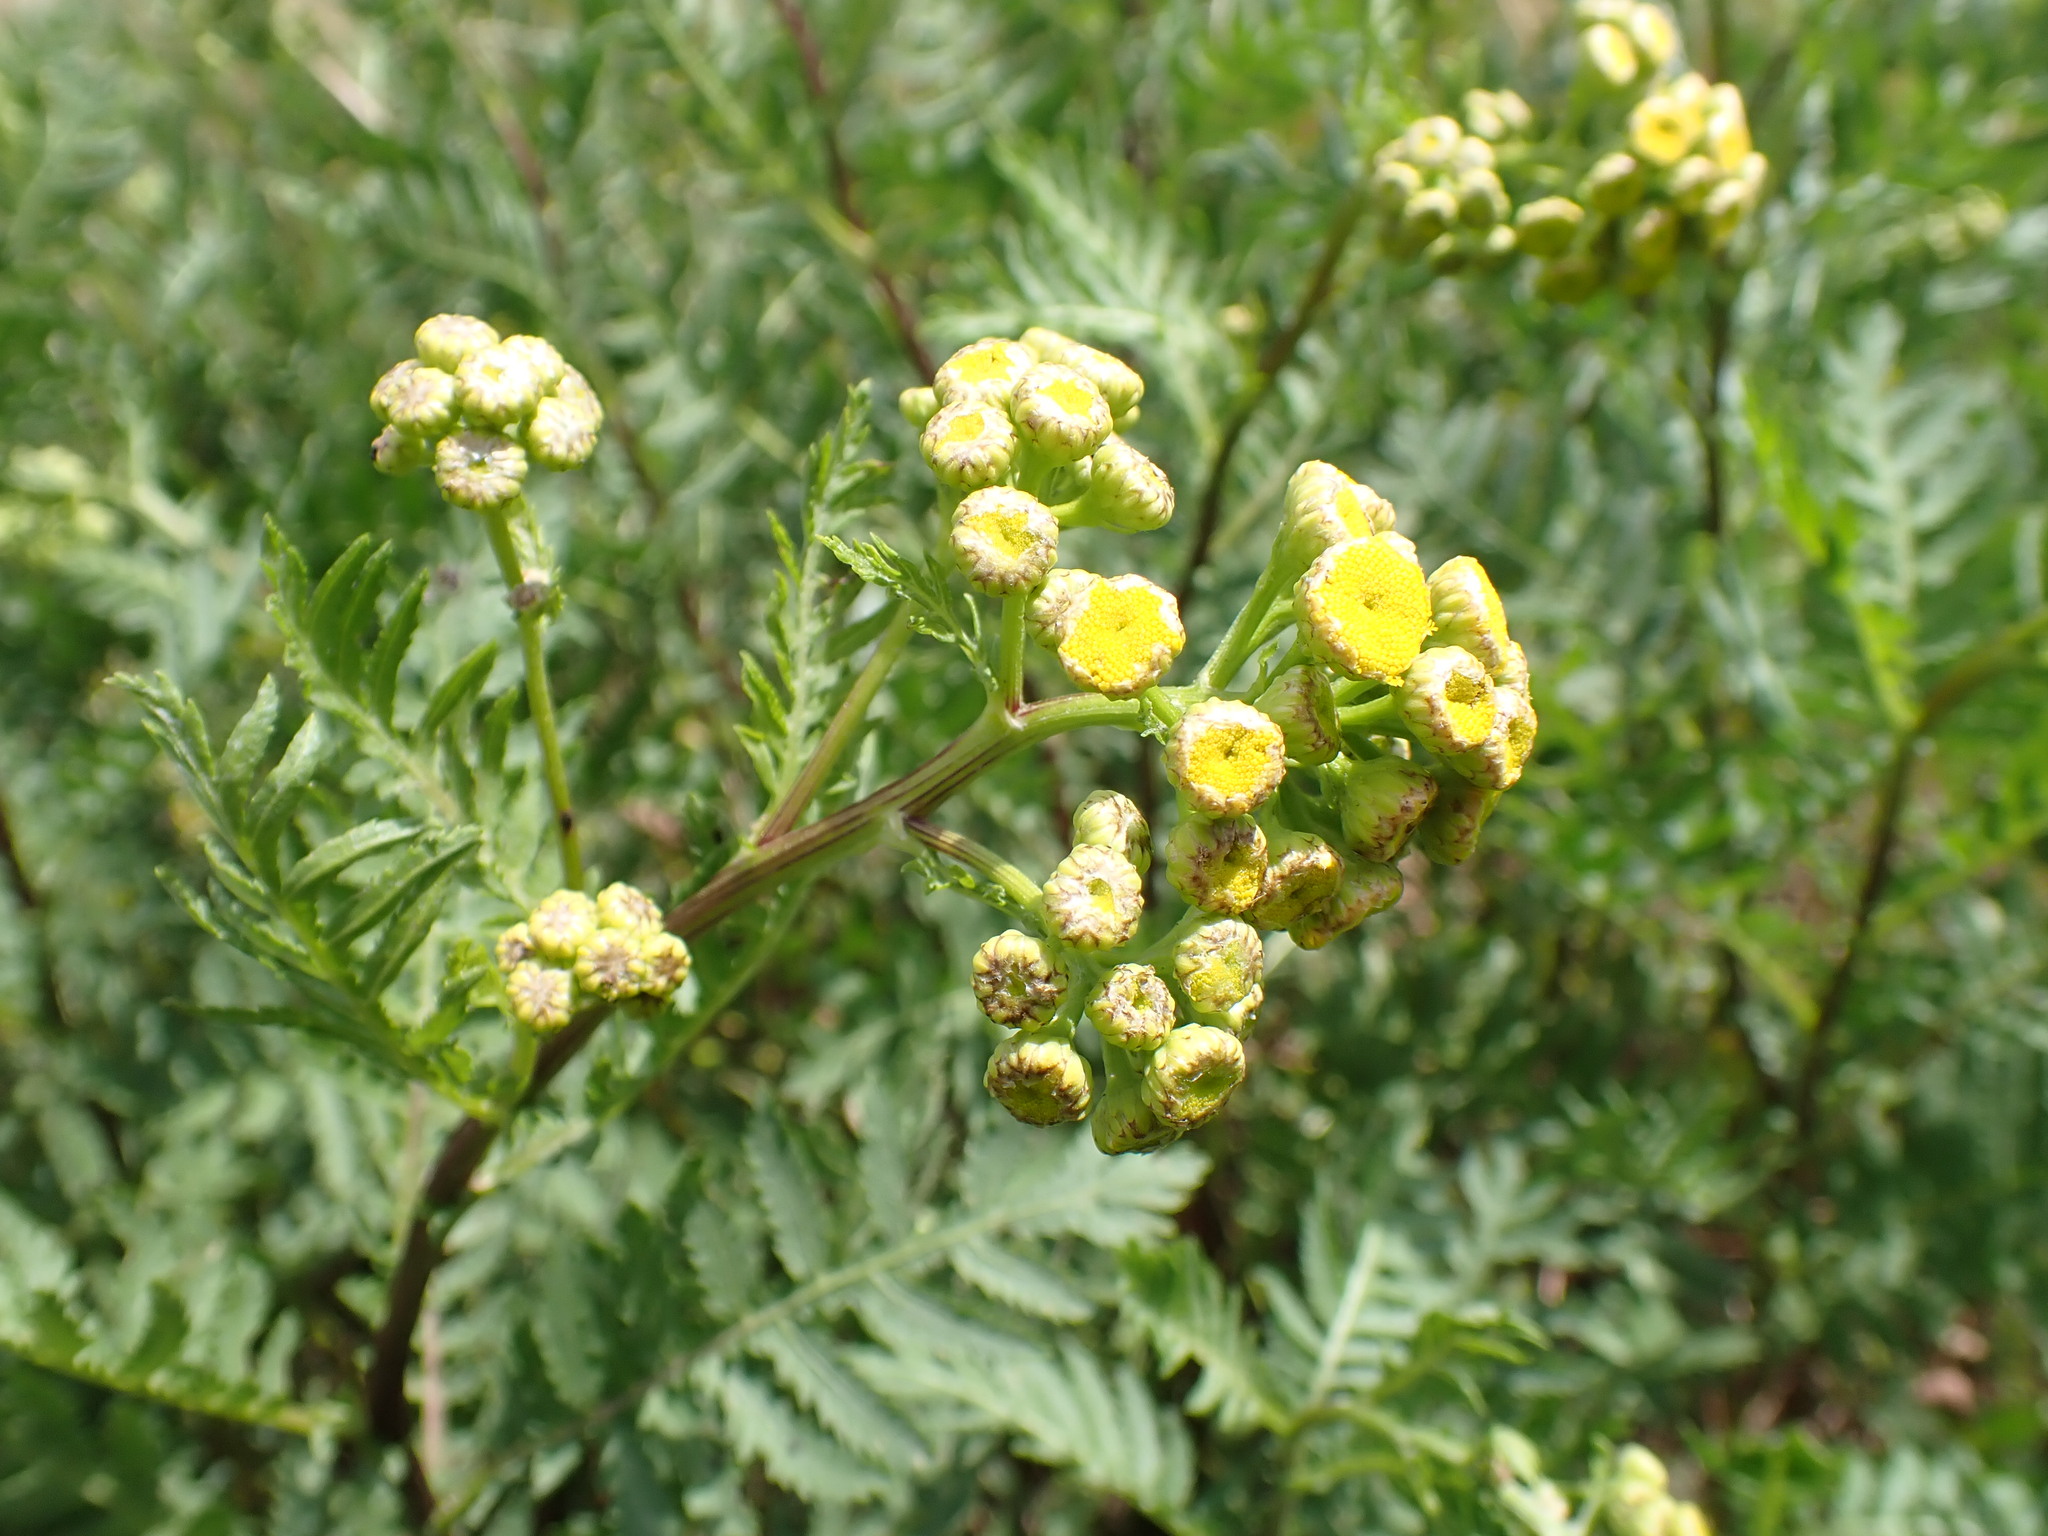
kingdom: Plantae
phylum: Tracheophyta
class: Magnoliopsida
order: Asterales
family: Asteraceae
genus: Tanacetum
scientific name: Tanacetum vulgare
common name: Common tansy
